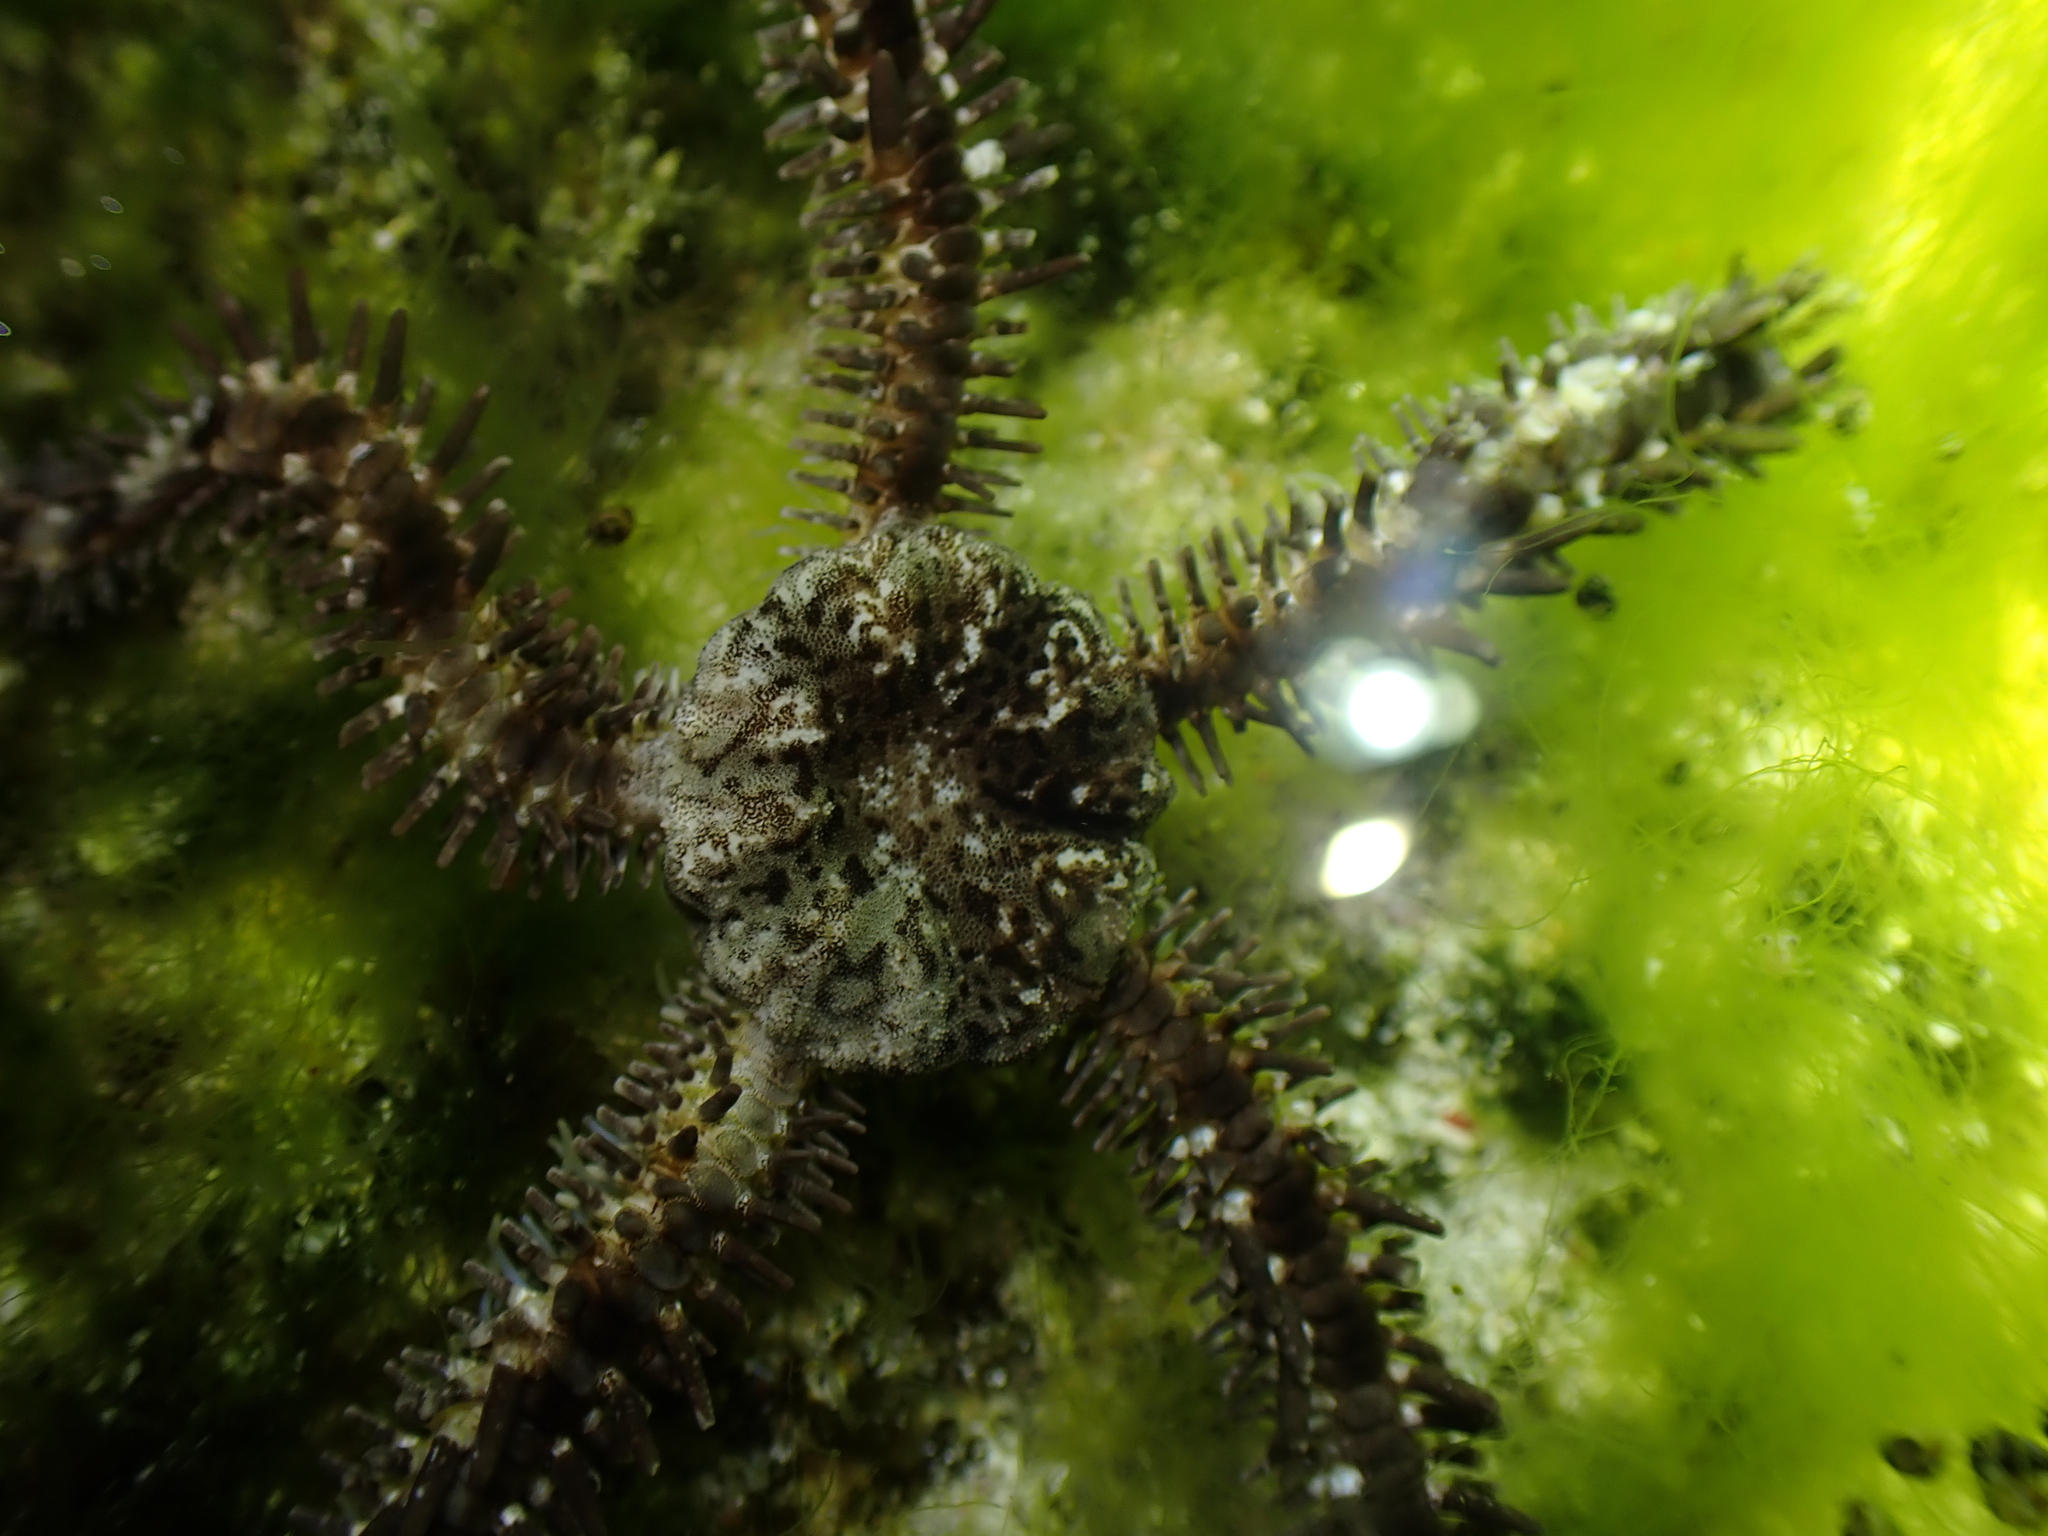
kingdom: Animalia
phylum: Echinodermata
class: Ophiuroidea
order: Ophiacanthida
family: Ophiocomidae
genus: Ophiocoma
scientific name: Ophiocoma scolopendrina
